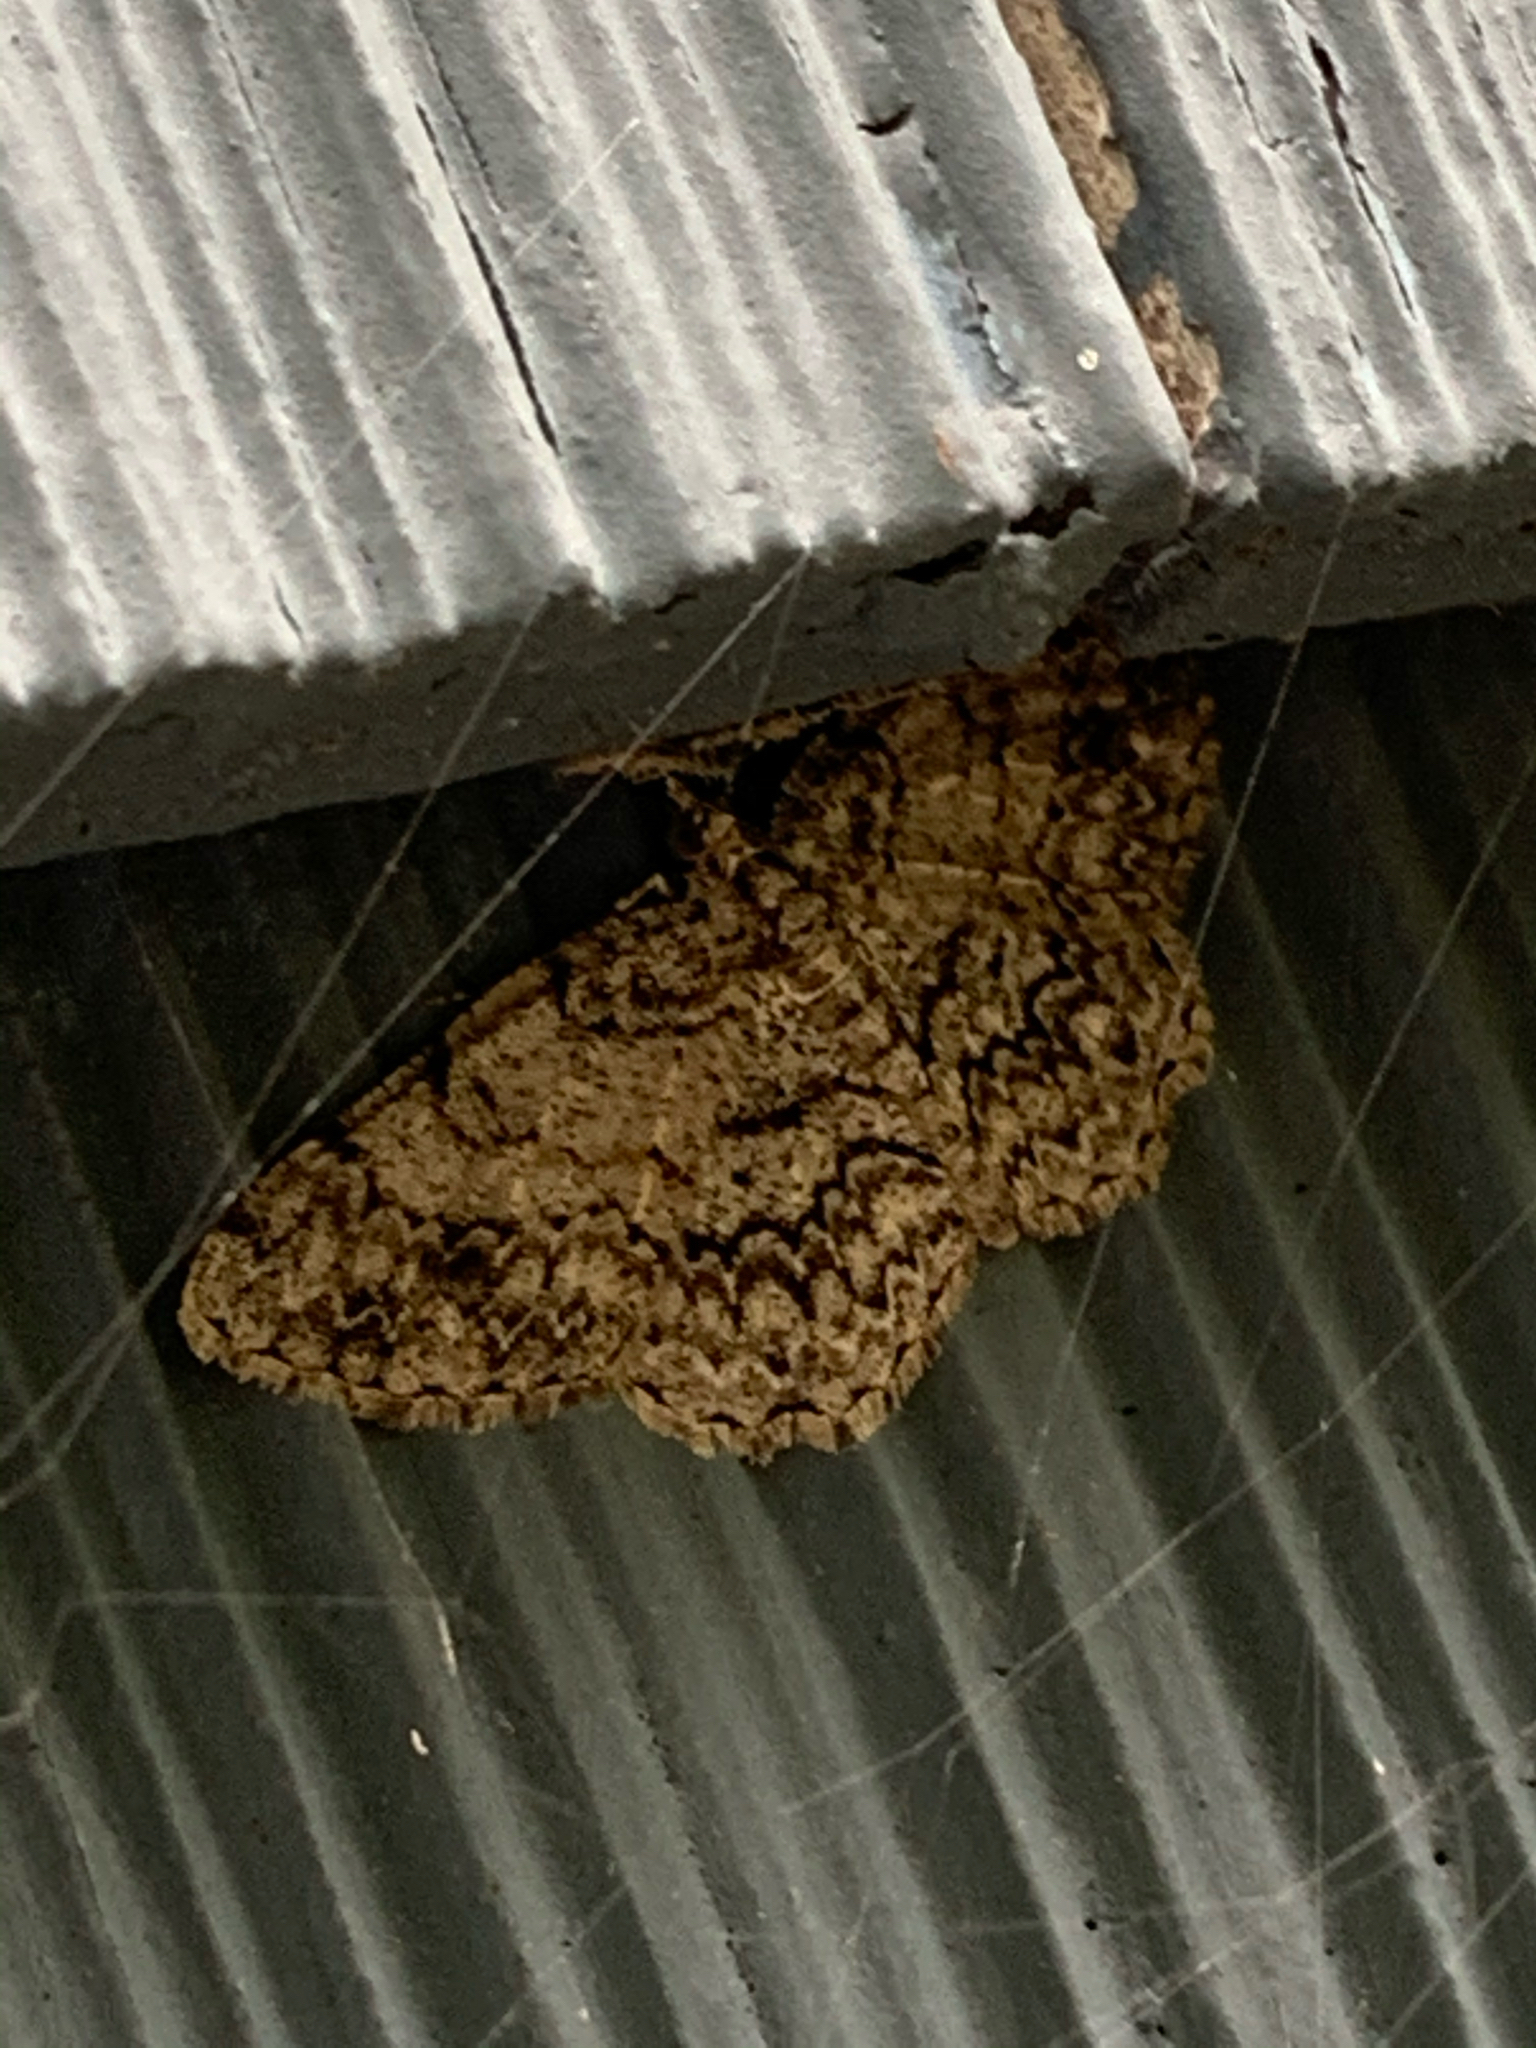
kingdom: Animalia
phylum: Arthropoda
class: Insecta
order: Lepidoptera
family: Geometridae
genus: Protoboarmia
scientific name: Protoboarmia porcelaria
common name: Porcelain gray
